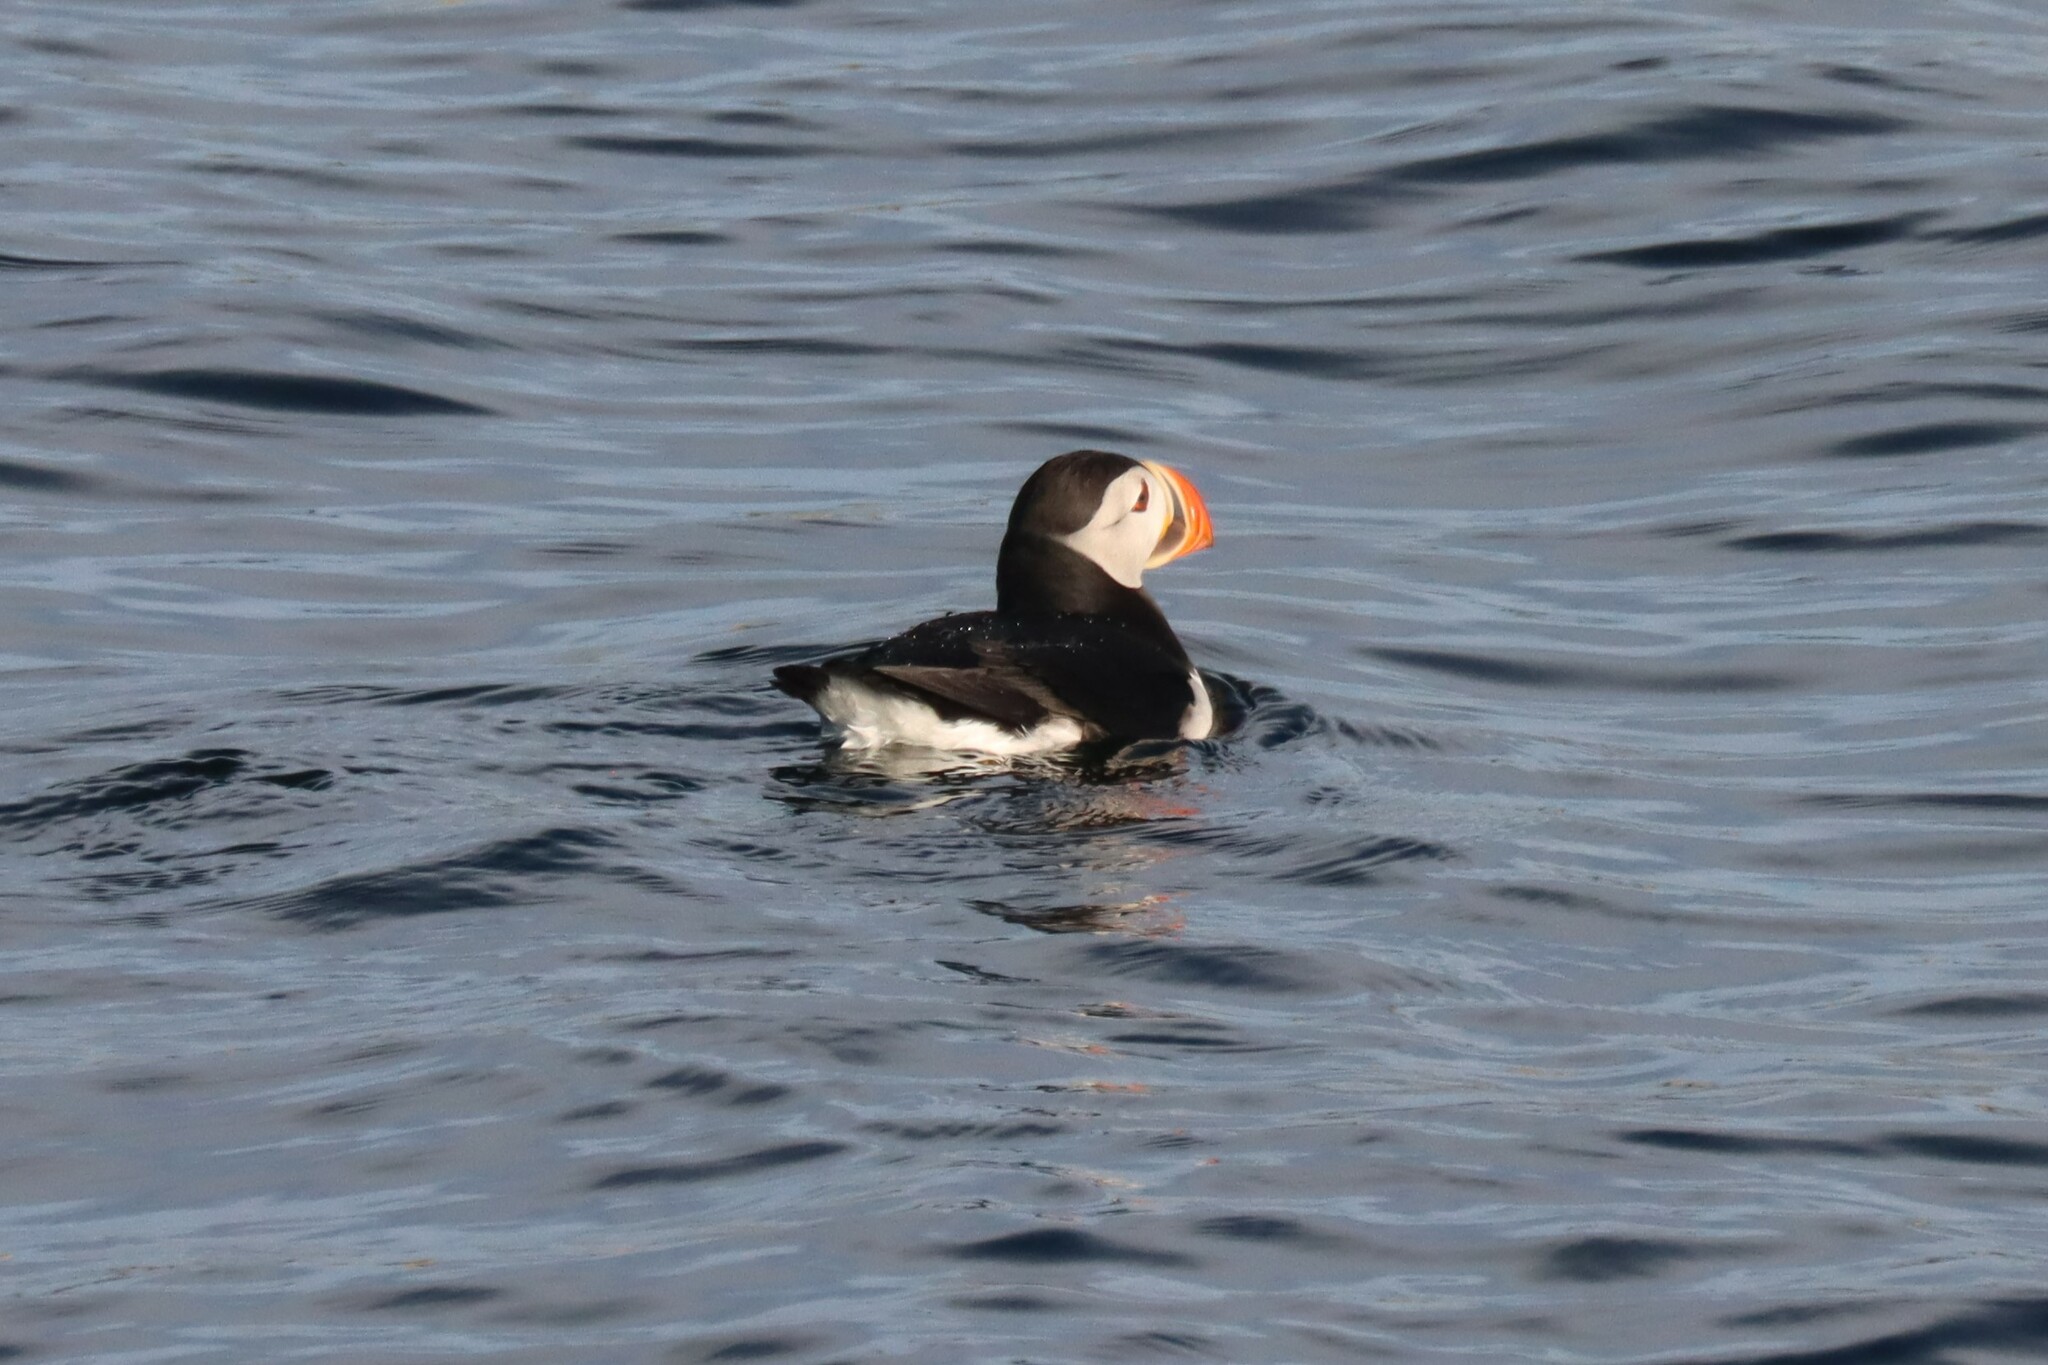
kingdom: Animalia
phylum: Chordata
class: Aves
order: Charadriiformes
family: Alcidae
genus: Fratercula
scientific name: Fratercula arctica
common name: Atlantic puffin
